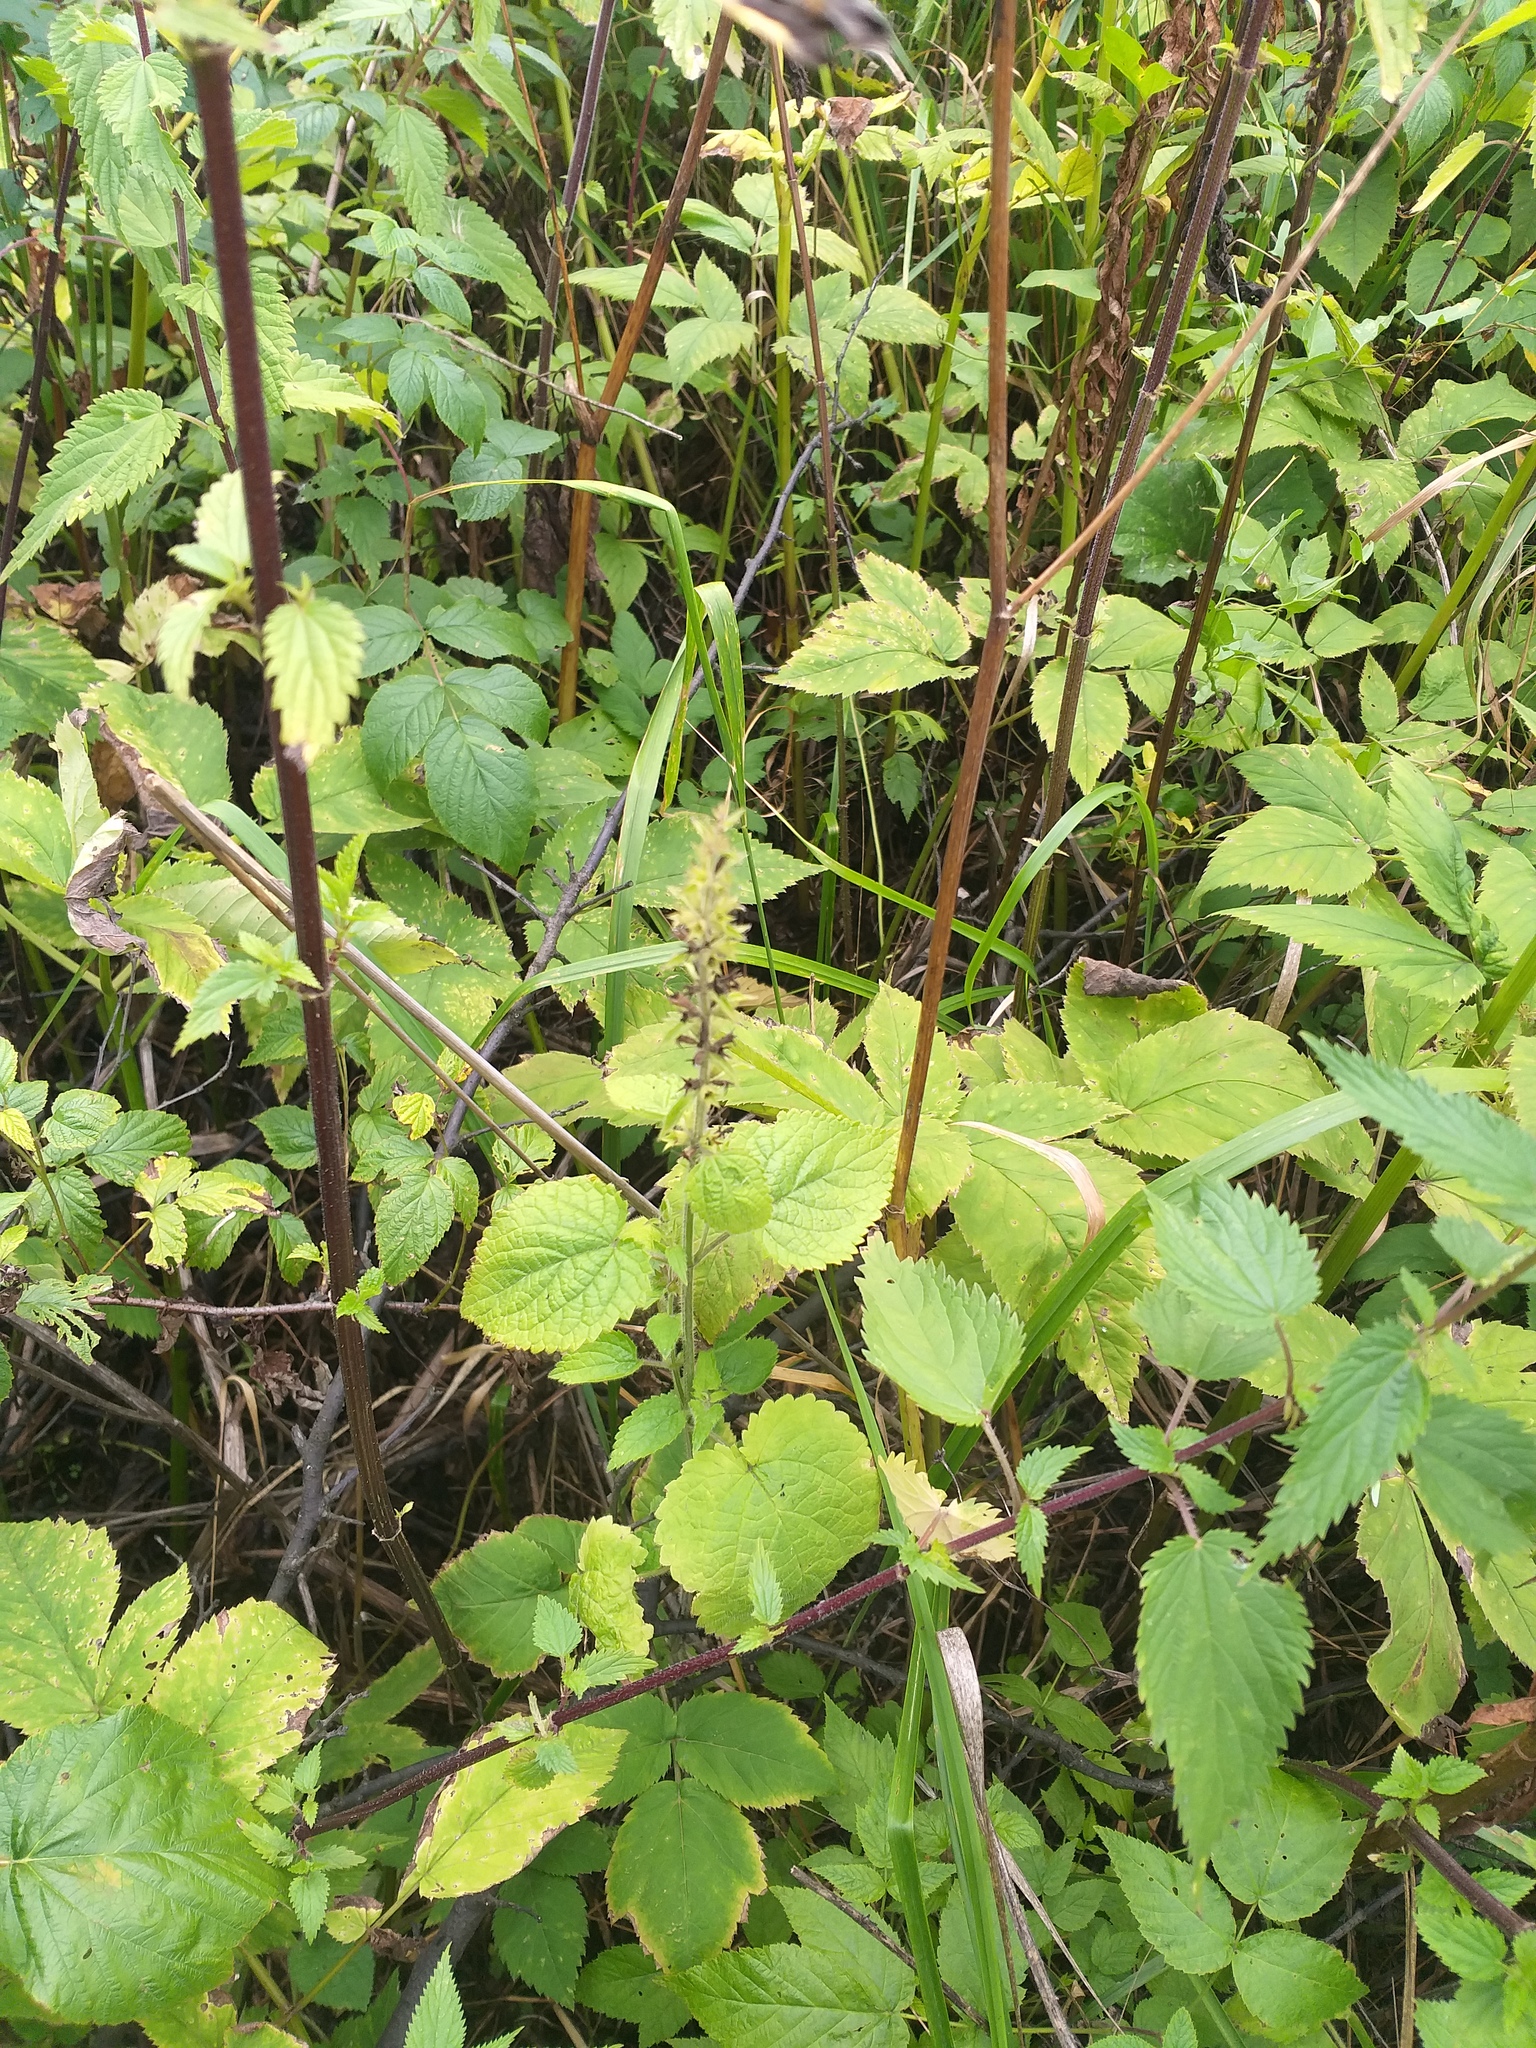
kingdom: Plantae
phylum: Tracheophyta
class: Magnoliopsida
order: Lamiales
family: Lamiaceae
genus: Stachys
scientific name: Stachys sylvatica
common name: Hedge woundwort
